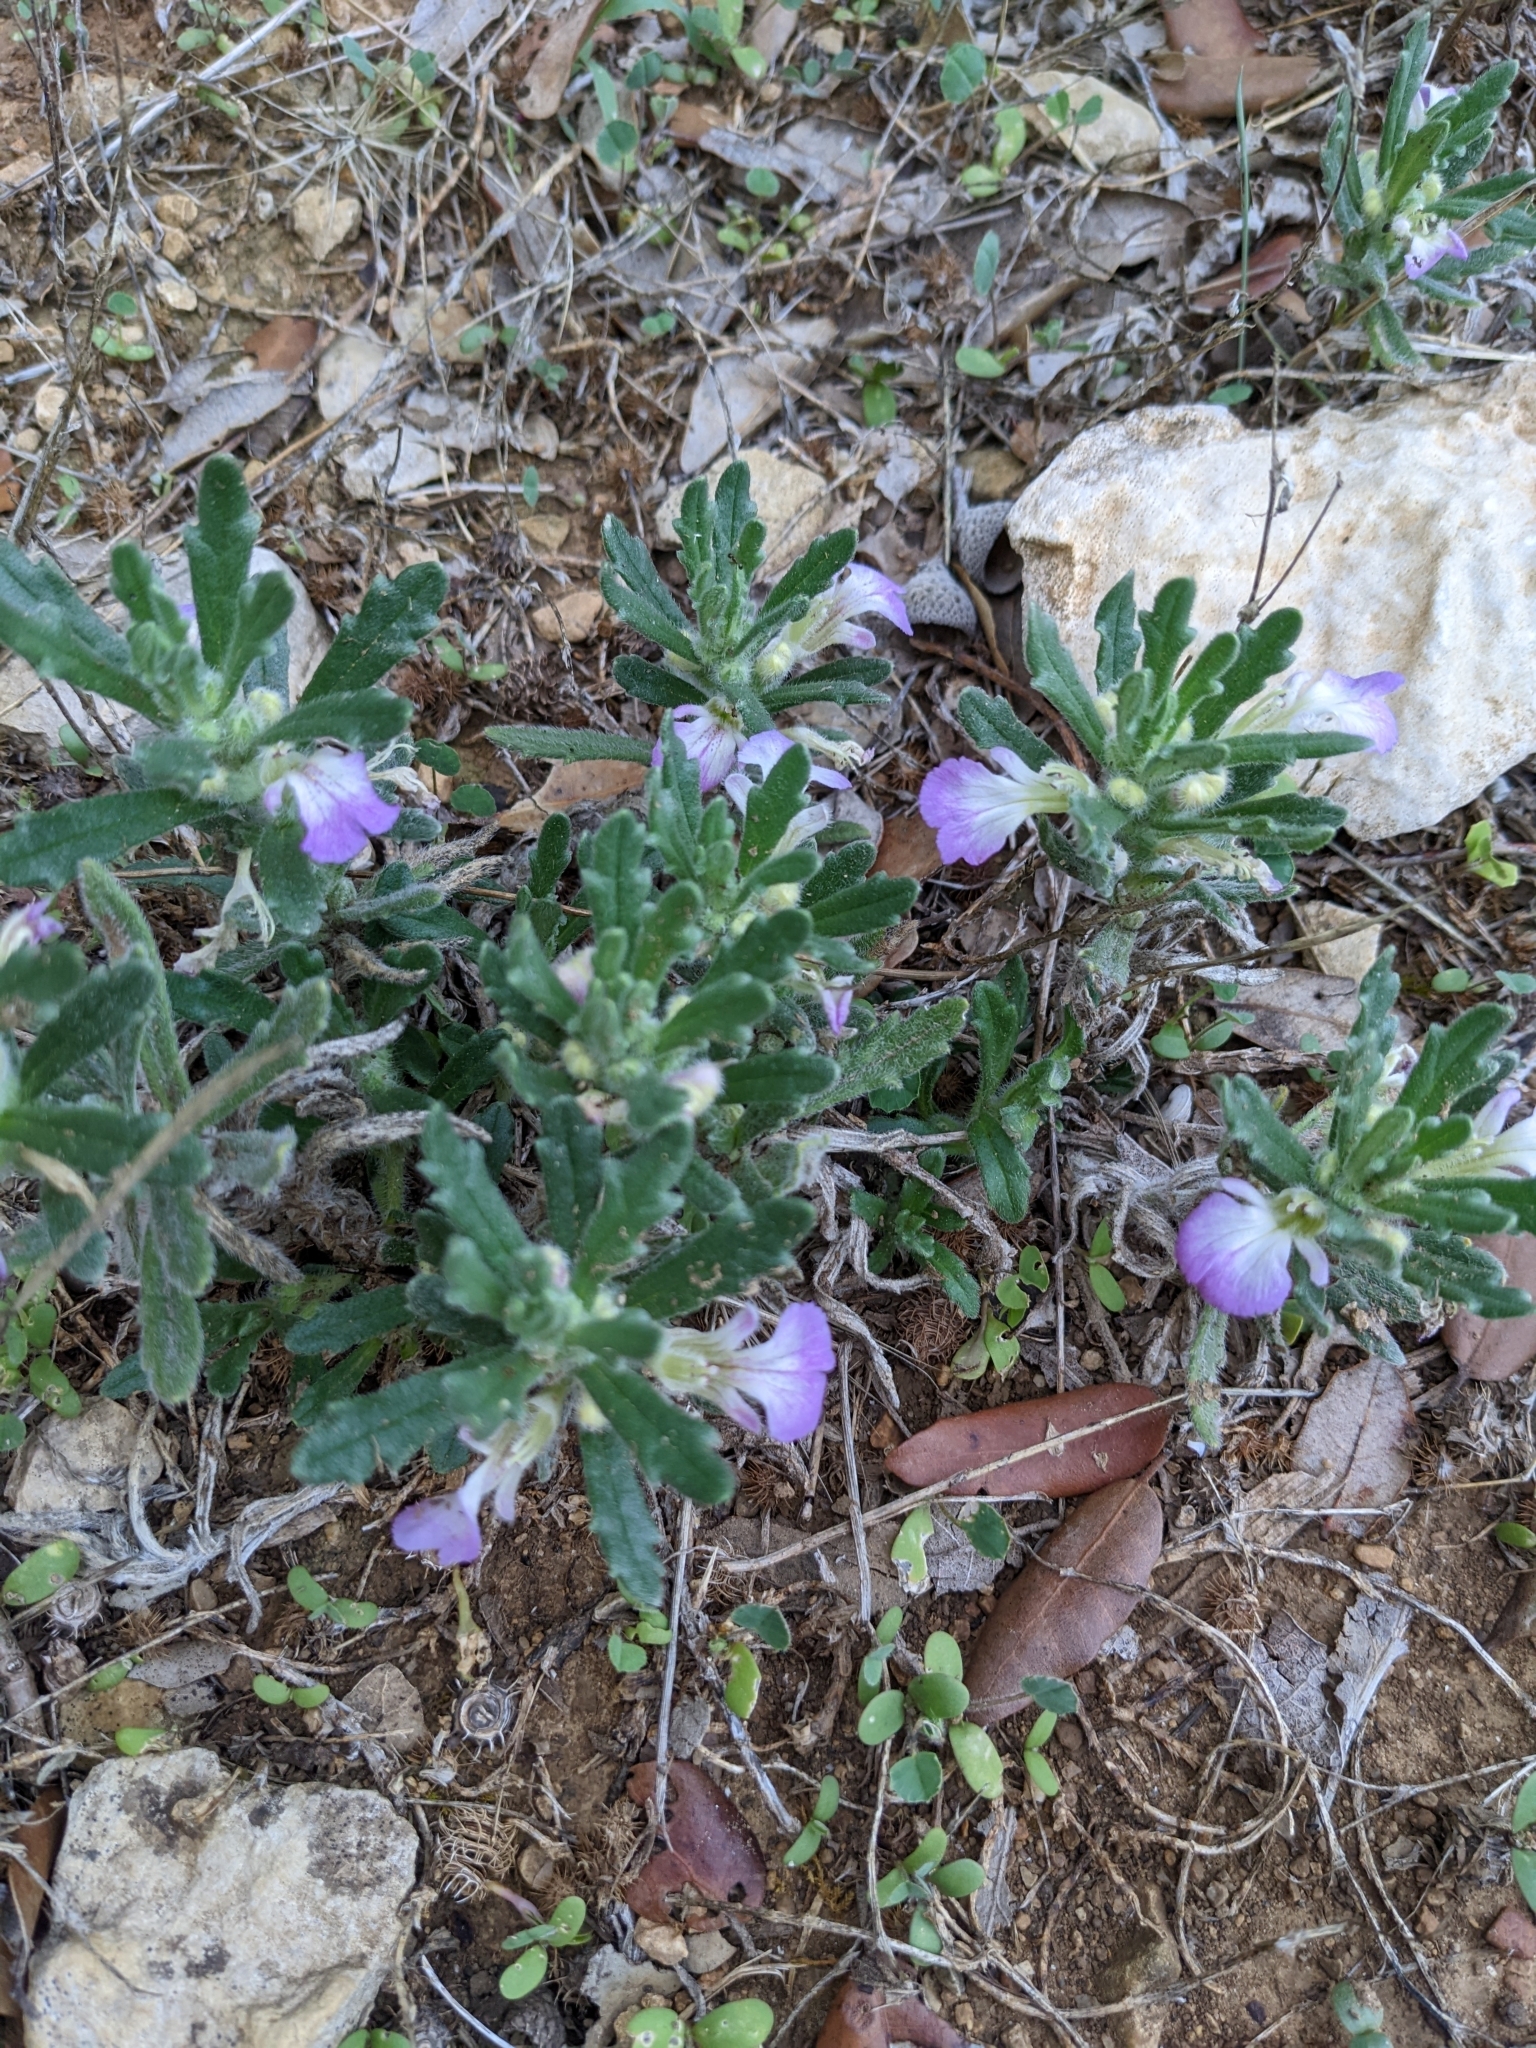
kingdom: Plantae
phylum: Tracheophyta
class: Magnoliopsida
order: Lamiales
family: Lamiaceae
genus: Ajuga
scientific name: Ajuga iva
